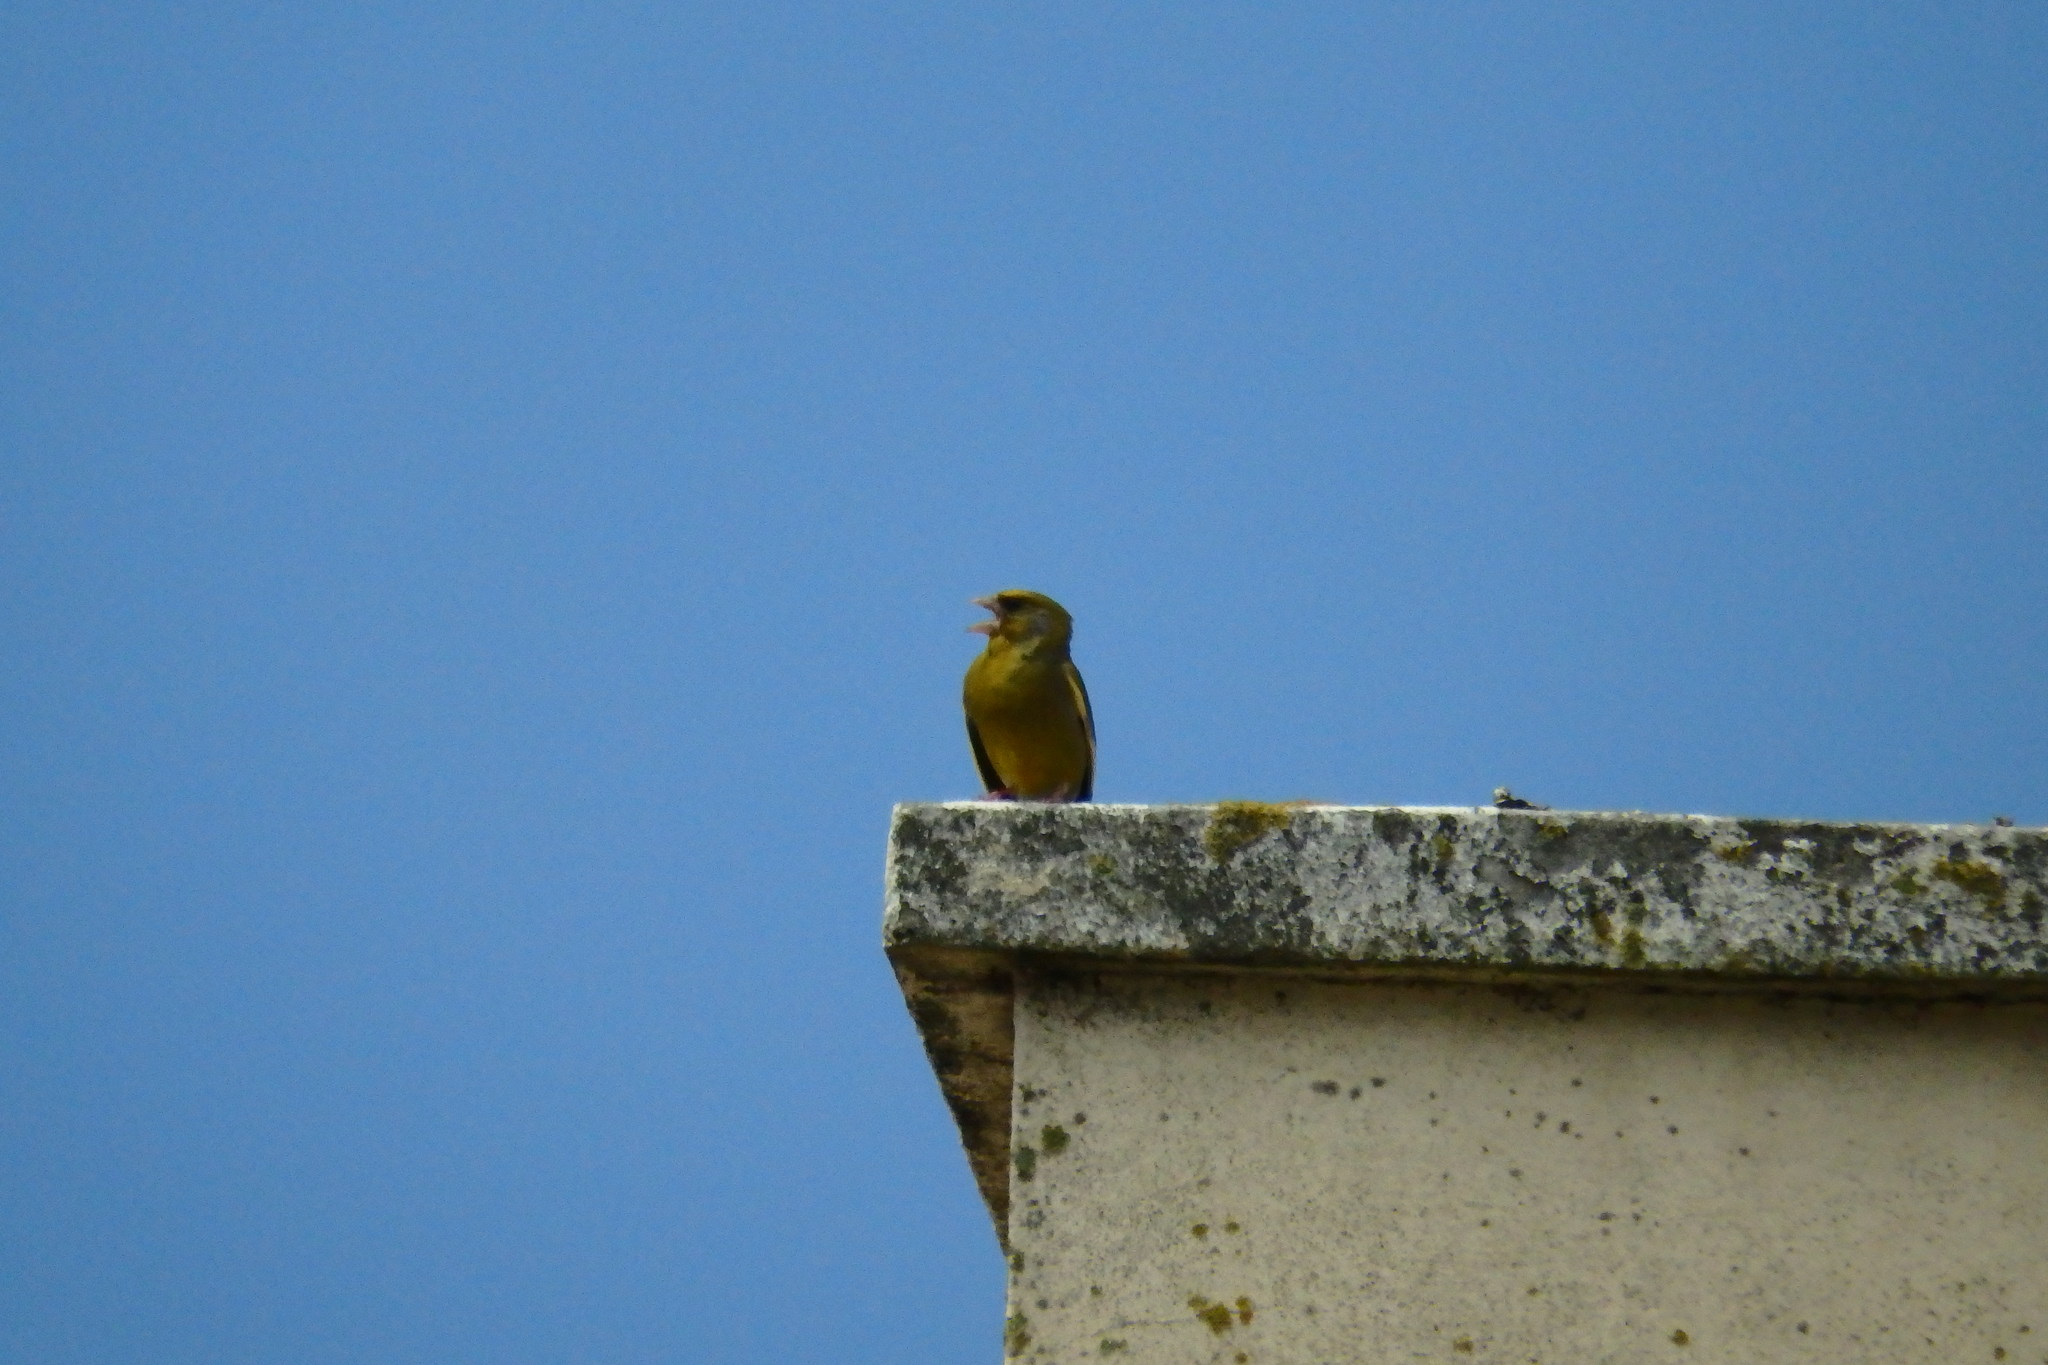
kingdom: Plantae
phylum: Tracheophyta
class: Liliopsida
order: Poales
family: Poaceae
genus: Chloris
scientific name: Chloris chloris
